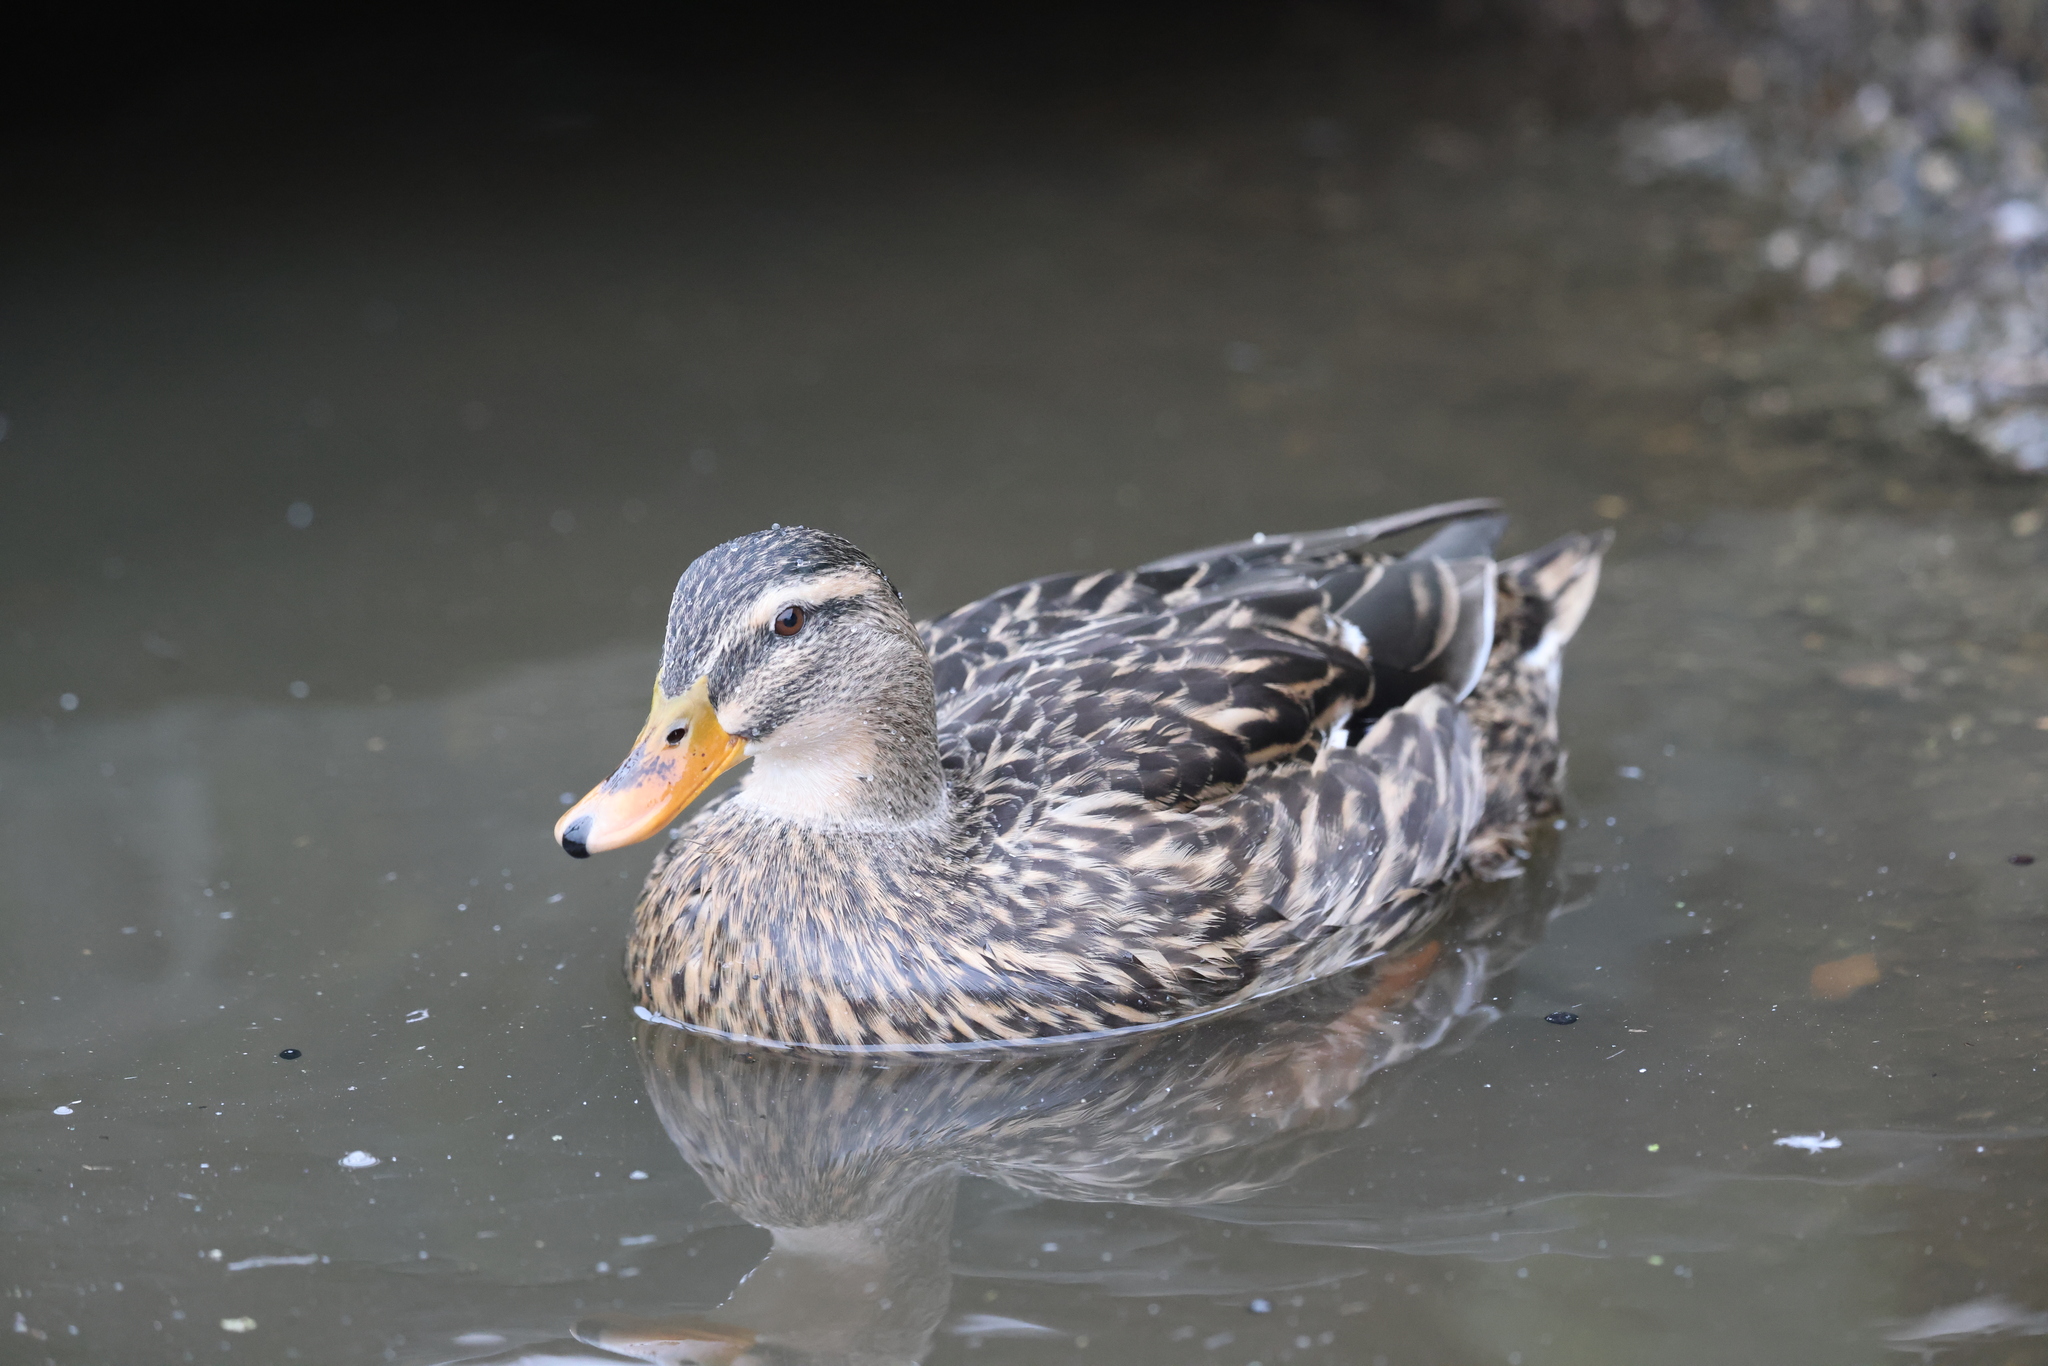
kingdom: Animalia
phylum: Chordata
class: Aves
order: Anseriformes
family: Anatidae
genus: Anas
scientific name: Anas platyrhynchos
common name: Mallard
